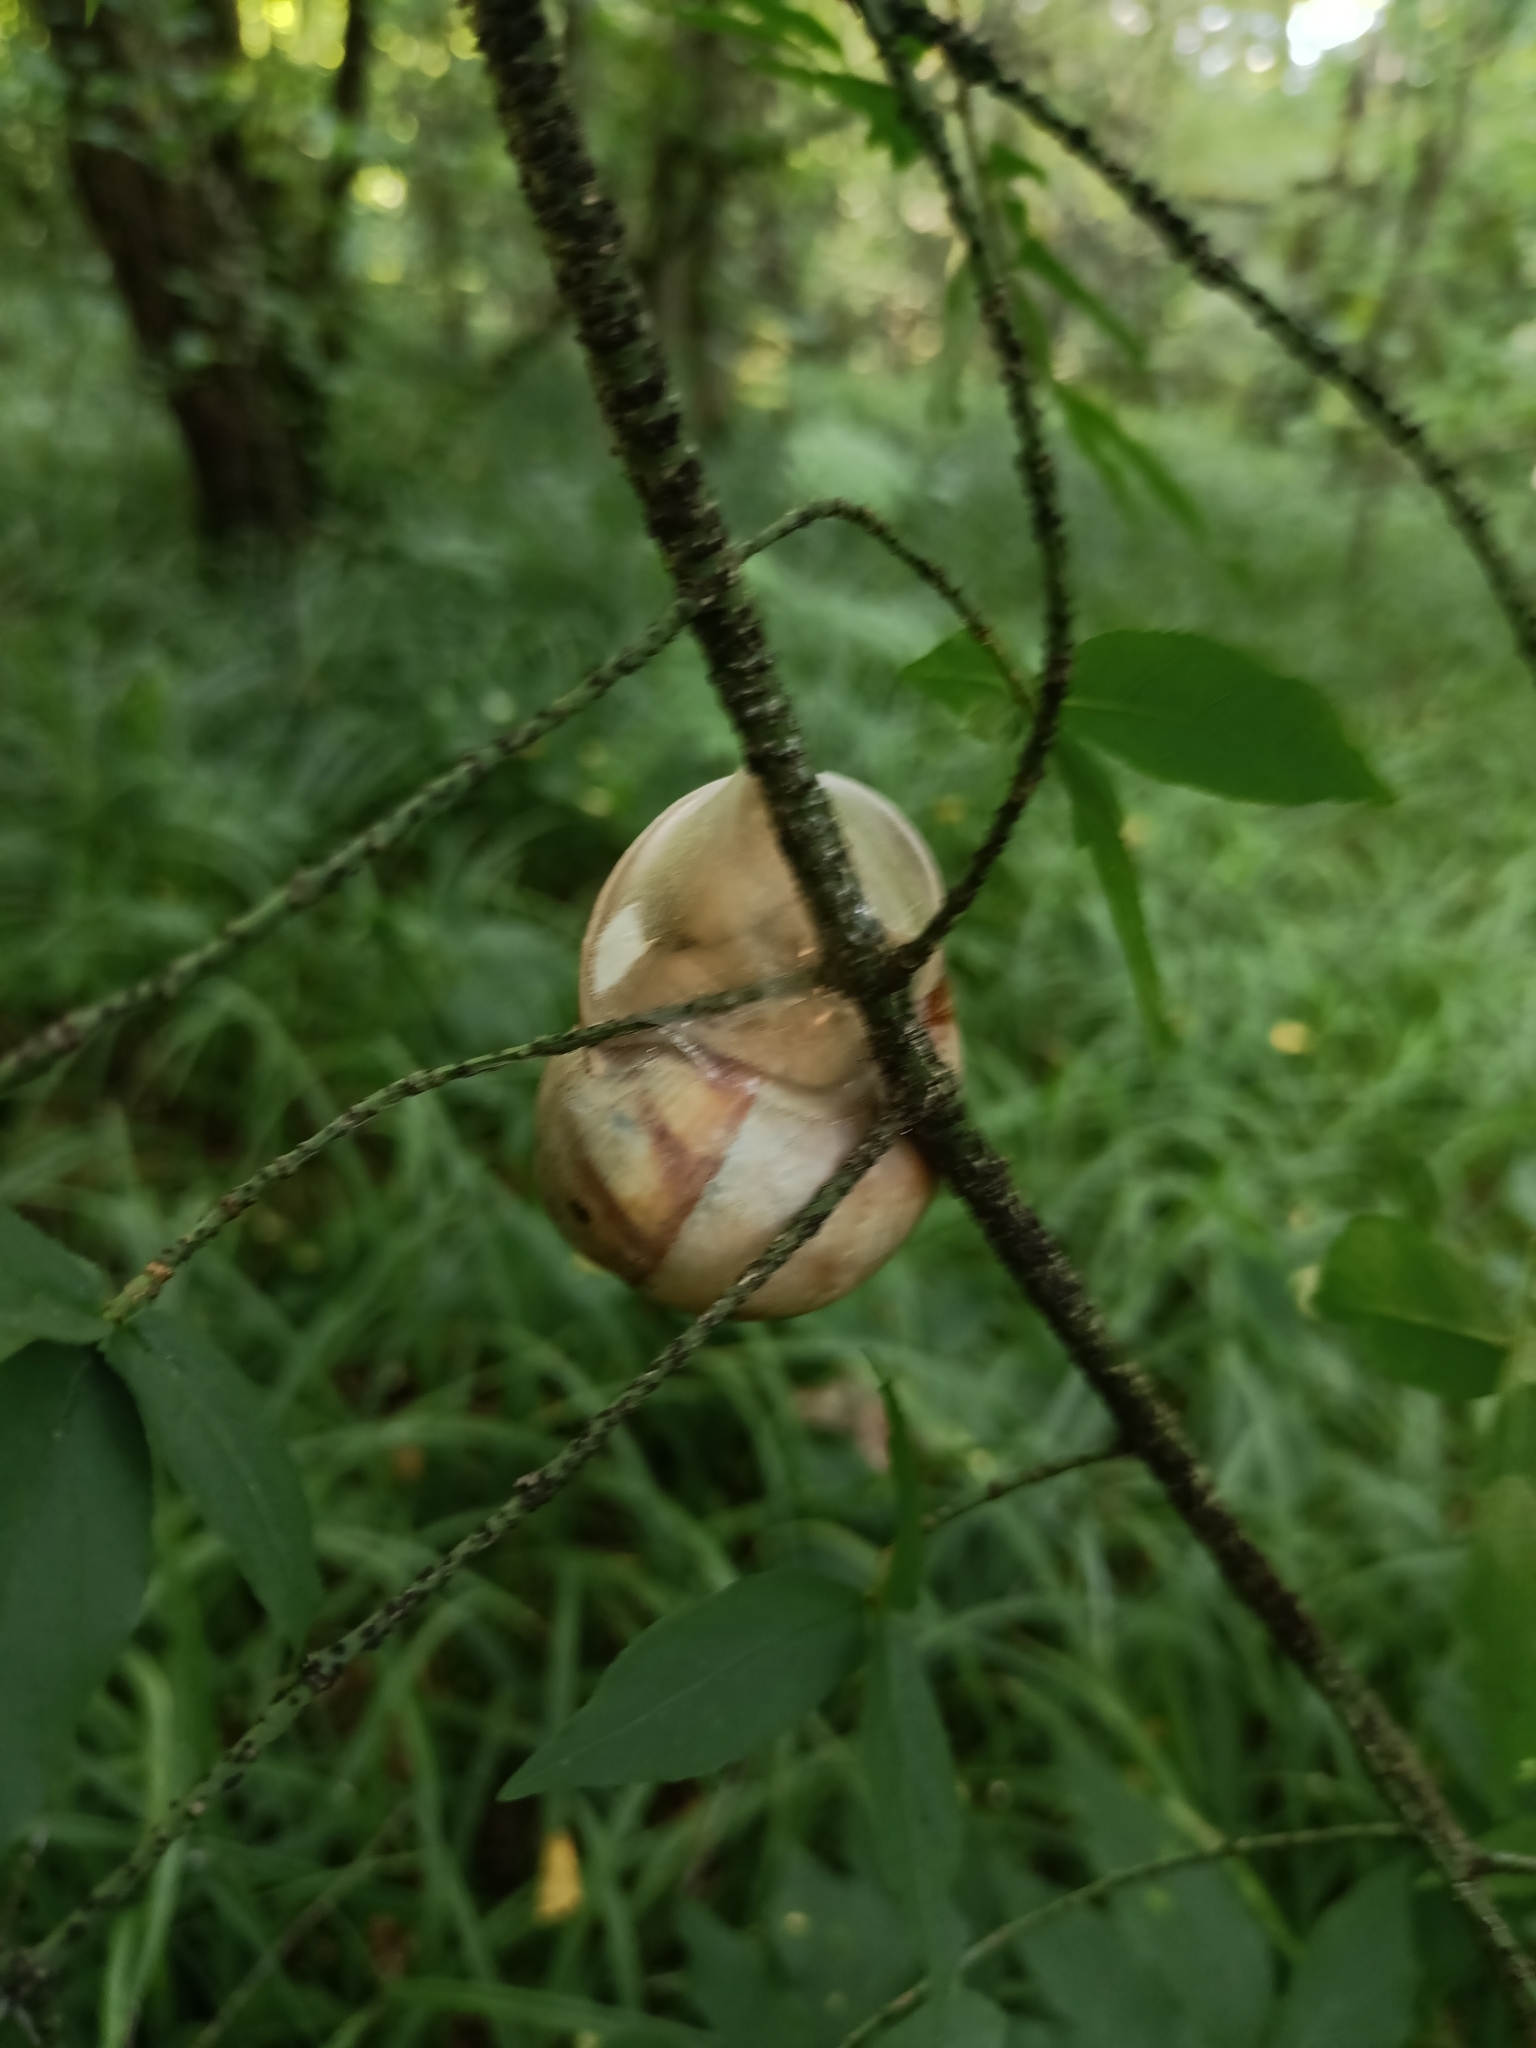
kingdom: Animalia
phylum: Mollusca
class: Gastropoda
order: Stylommatophora
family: Helicidae
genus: Helix
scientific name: Helix pomatia
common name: Roman snail
